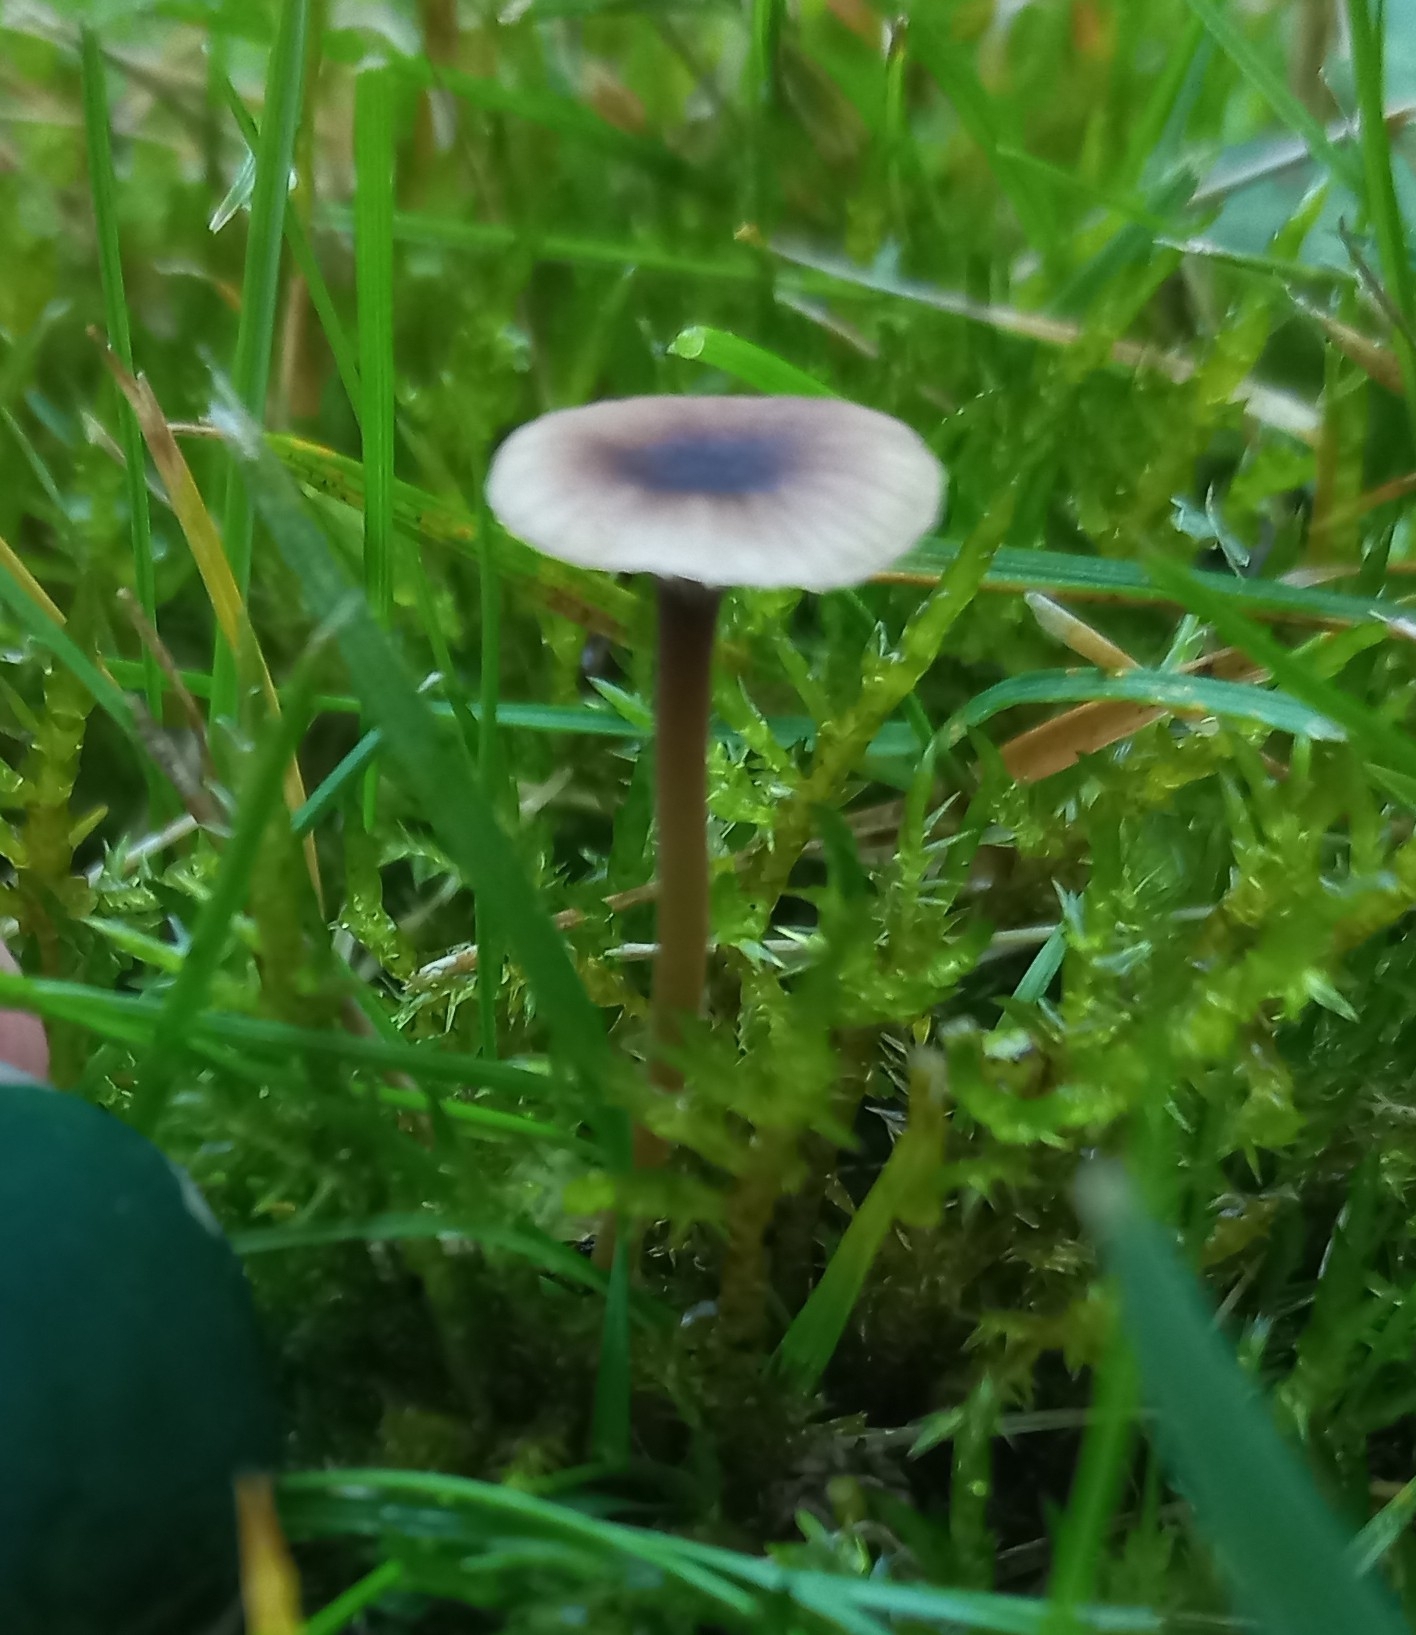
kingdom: Fungi
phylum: Basidiomycota
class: Agaricomycetes
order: Hymenochaetales
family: Rickenellaceae
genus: Rickenella
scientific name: Rickenella swartzii
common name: Collared mosscap
